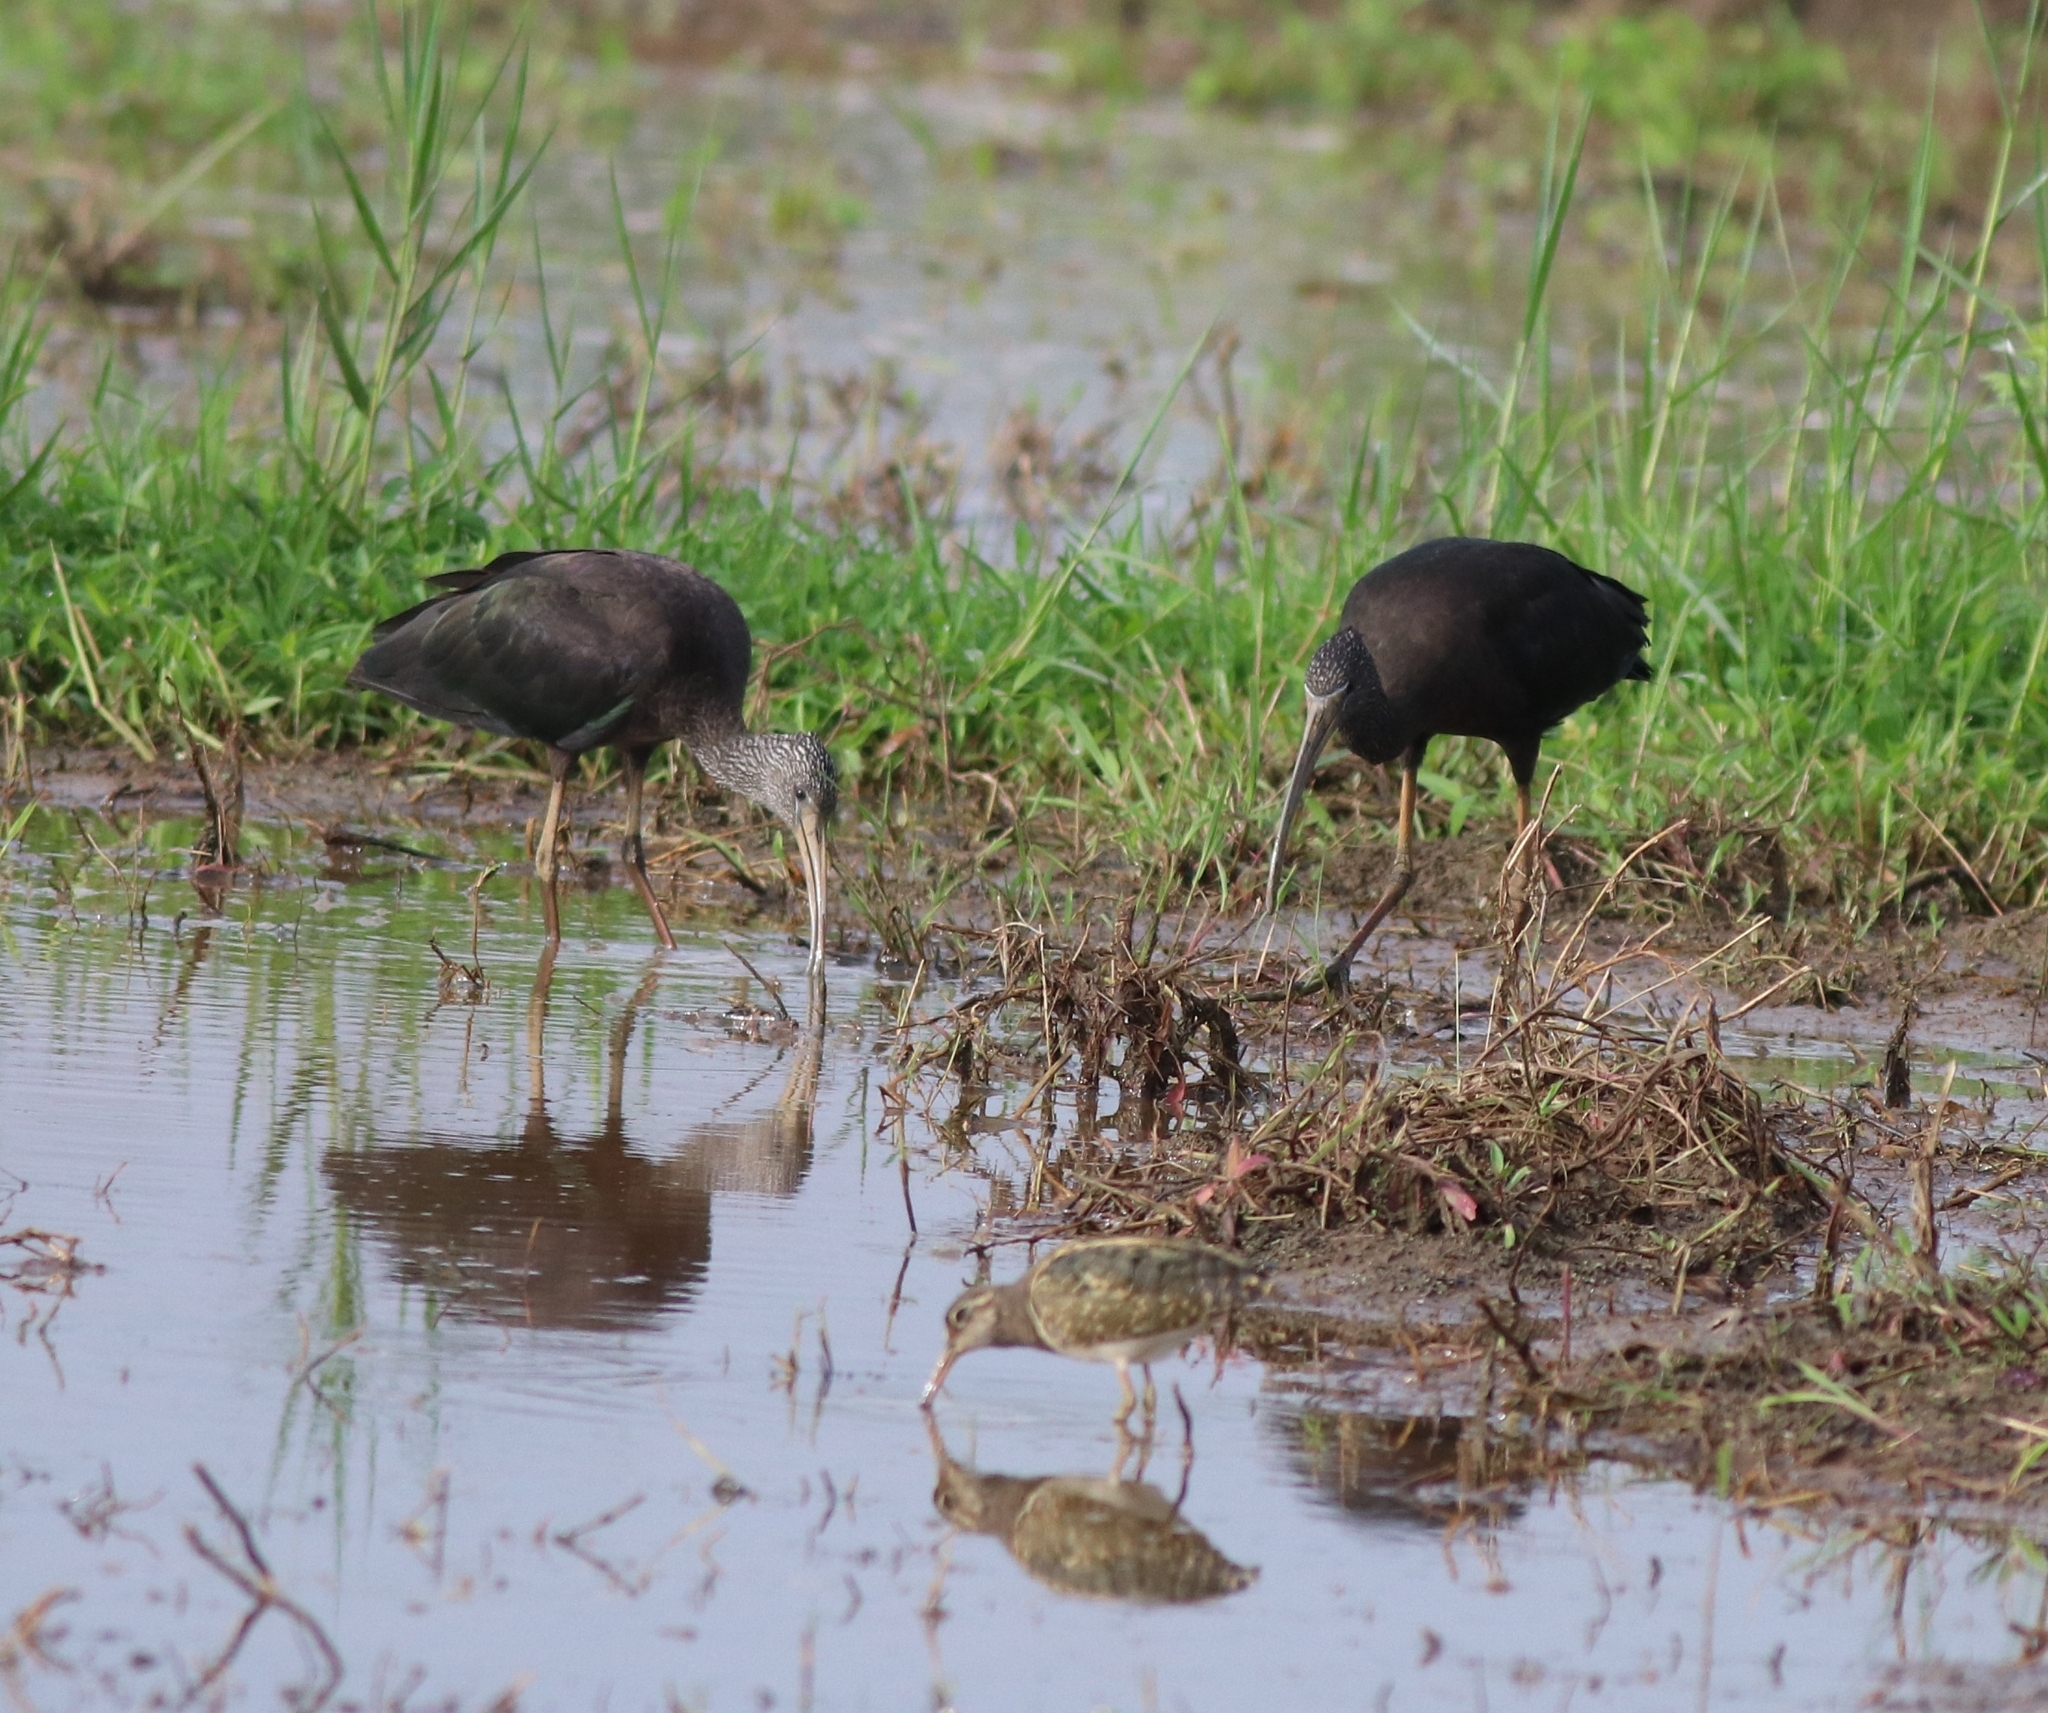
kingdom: Animalia
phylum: Chordata
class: Aves
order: Pelecaniformes
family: Threskiornithidae
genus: Plegadis
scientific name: Plegadis falcinellus
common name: Glossy ibis
